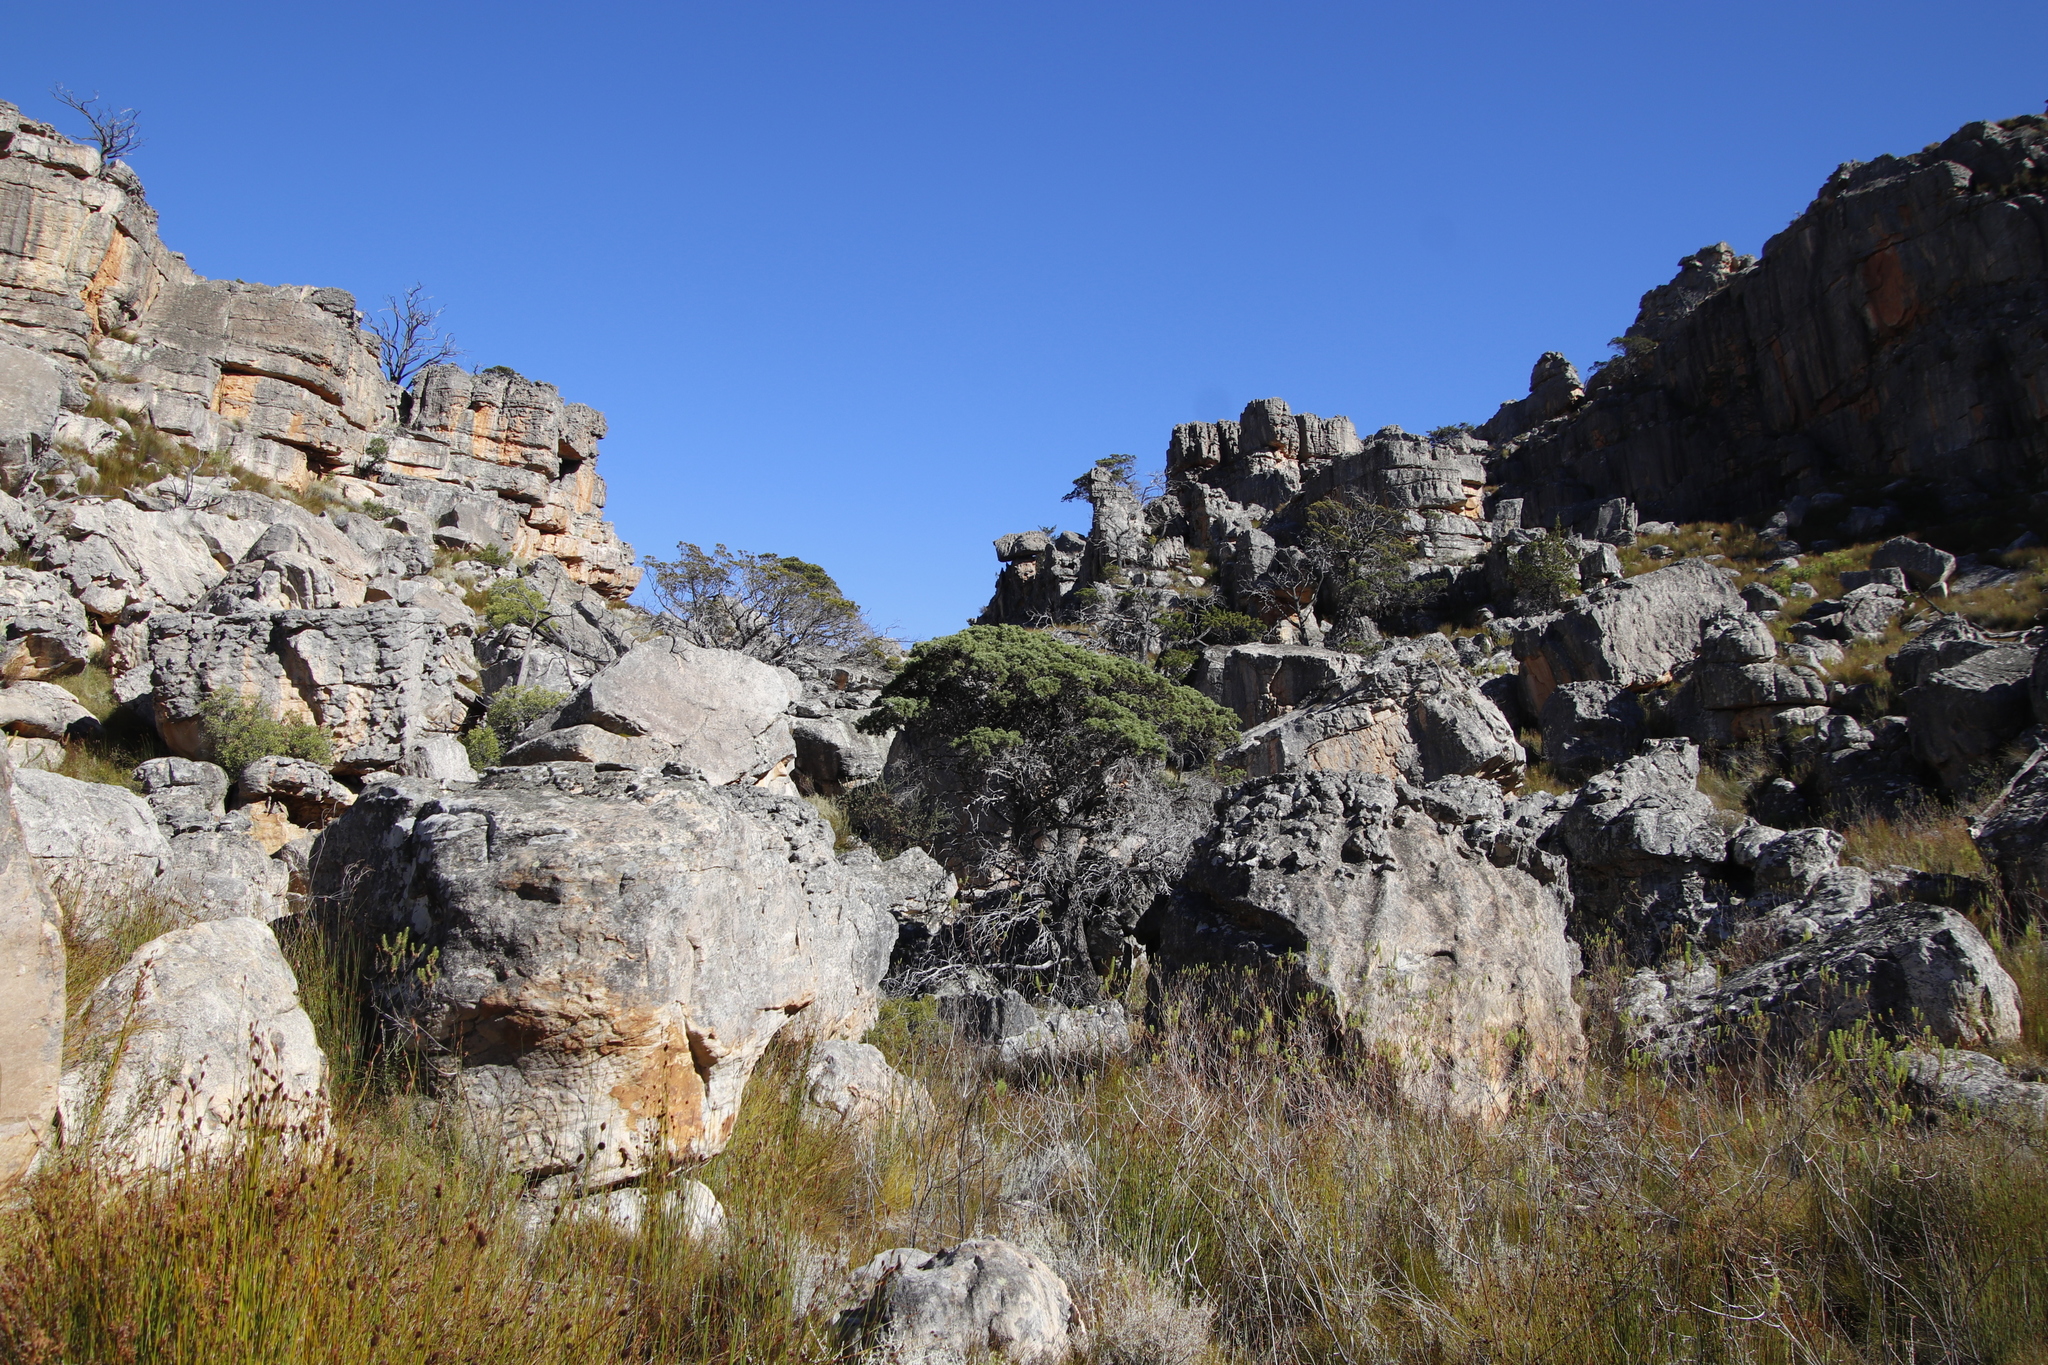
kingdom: Plantae
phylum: Tracheophyta
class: Pinopsida
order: Pinales
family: Cupressaceae
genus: Widdringtonia
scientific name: Widdringtonia nodiflora
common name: Cape cypress
